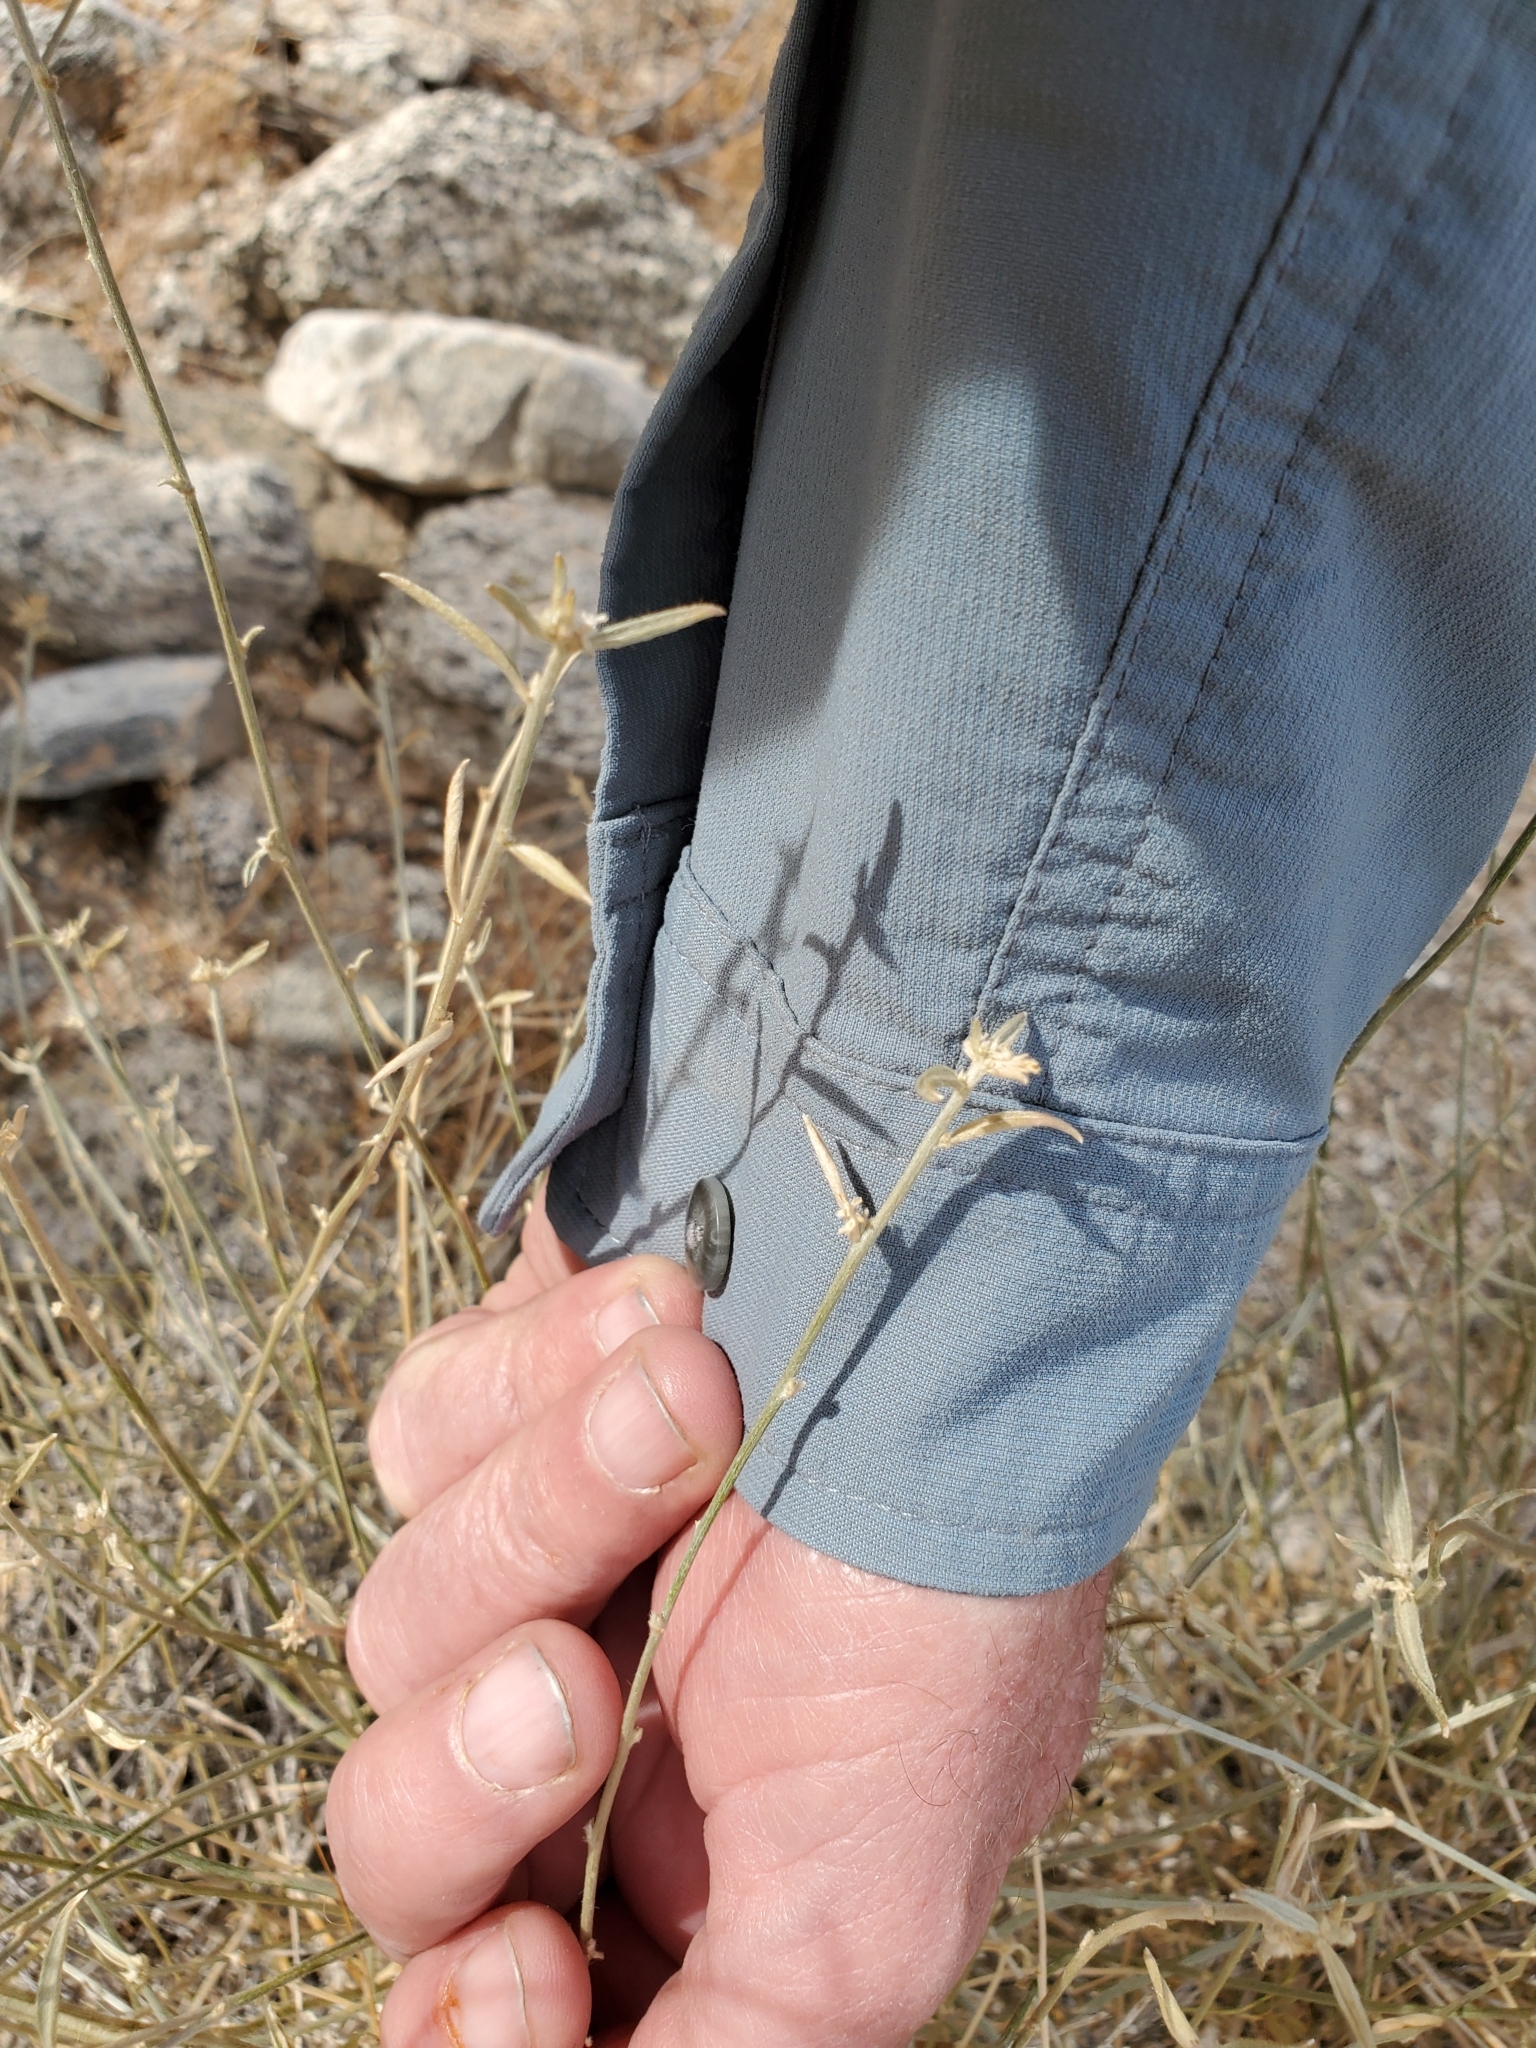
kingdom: Plantae
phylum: Tracheophyta
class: Magnoliopsida
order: Malpighiales
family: Euphorbiaceae
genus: Ditaxis
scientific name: Ditaxis lanceolata
